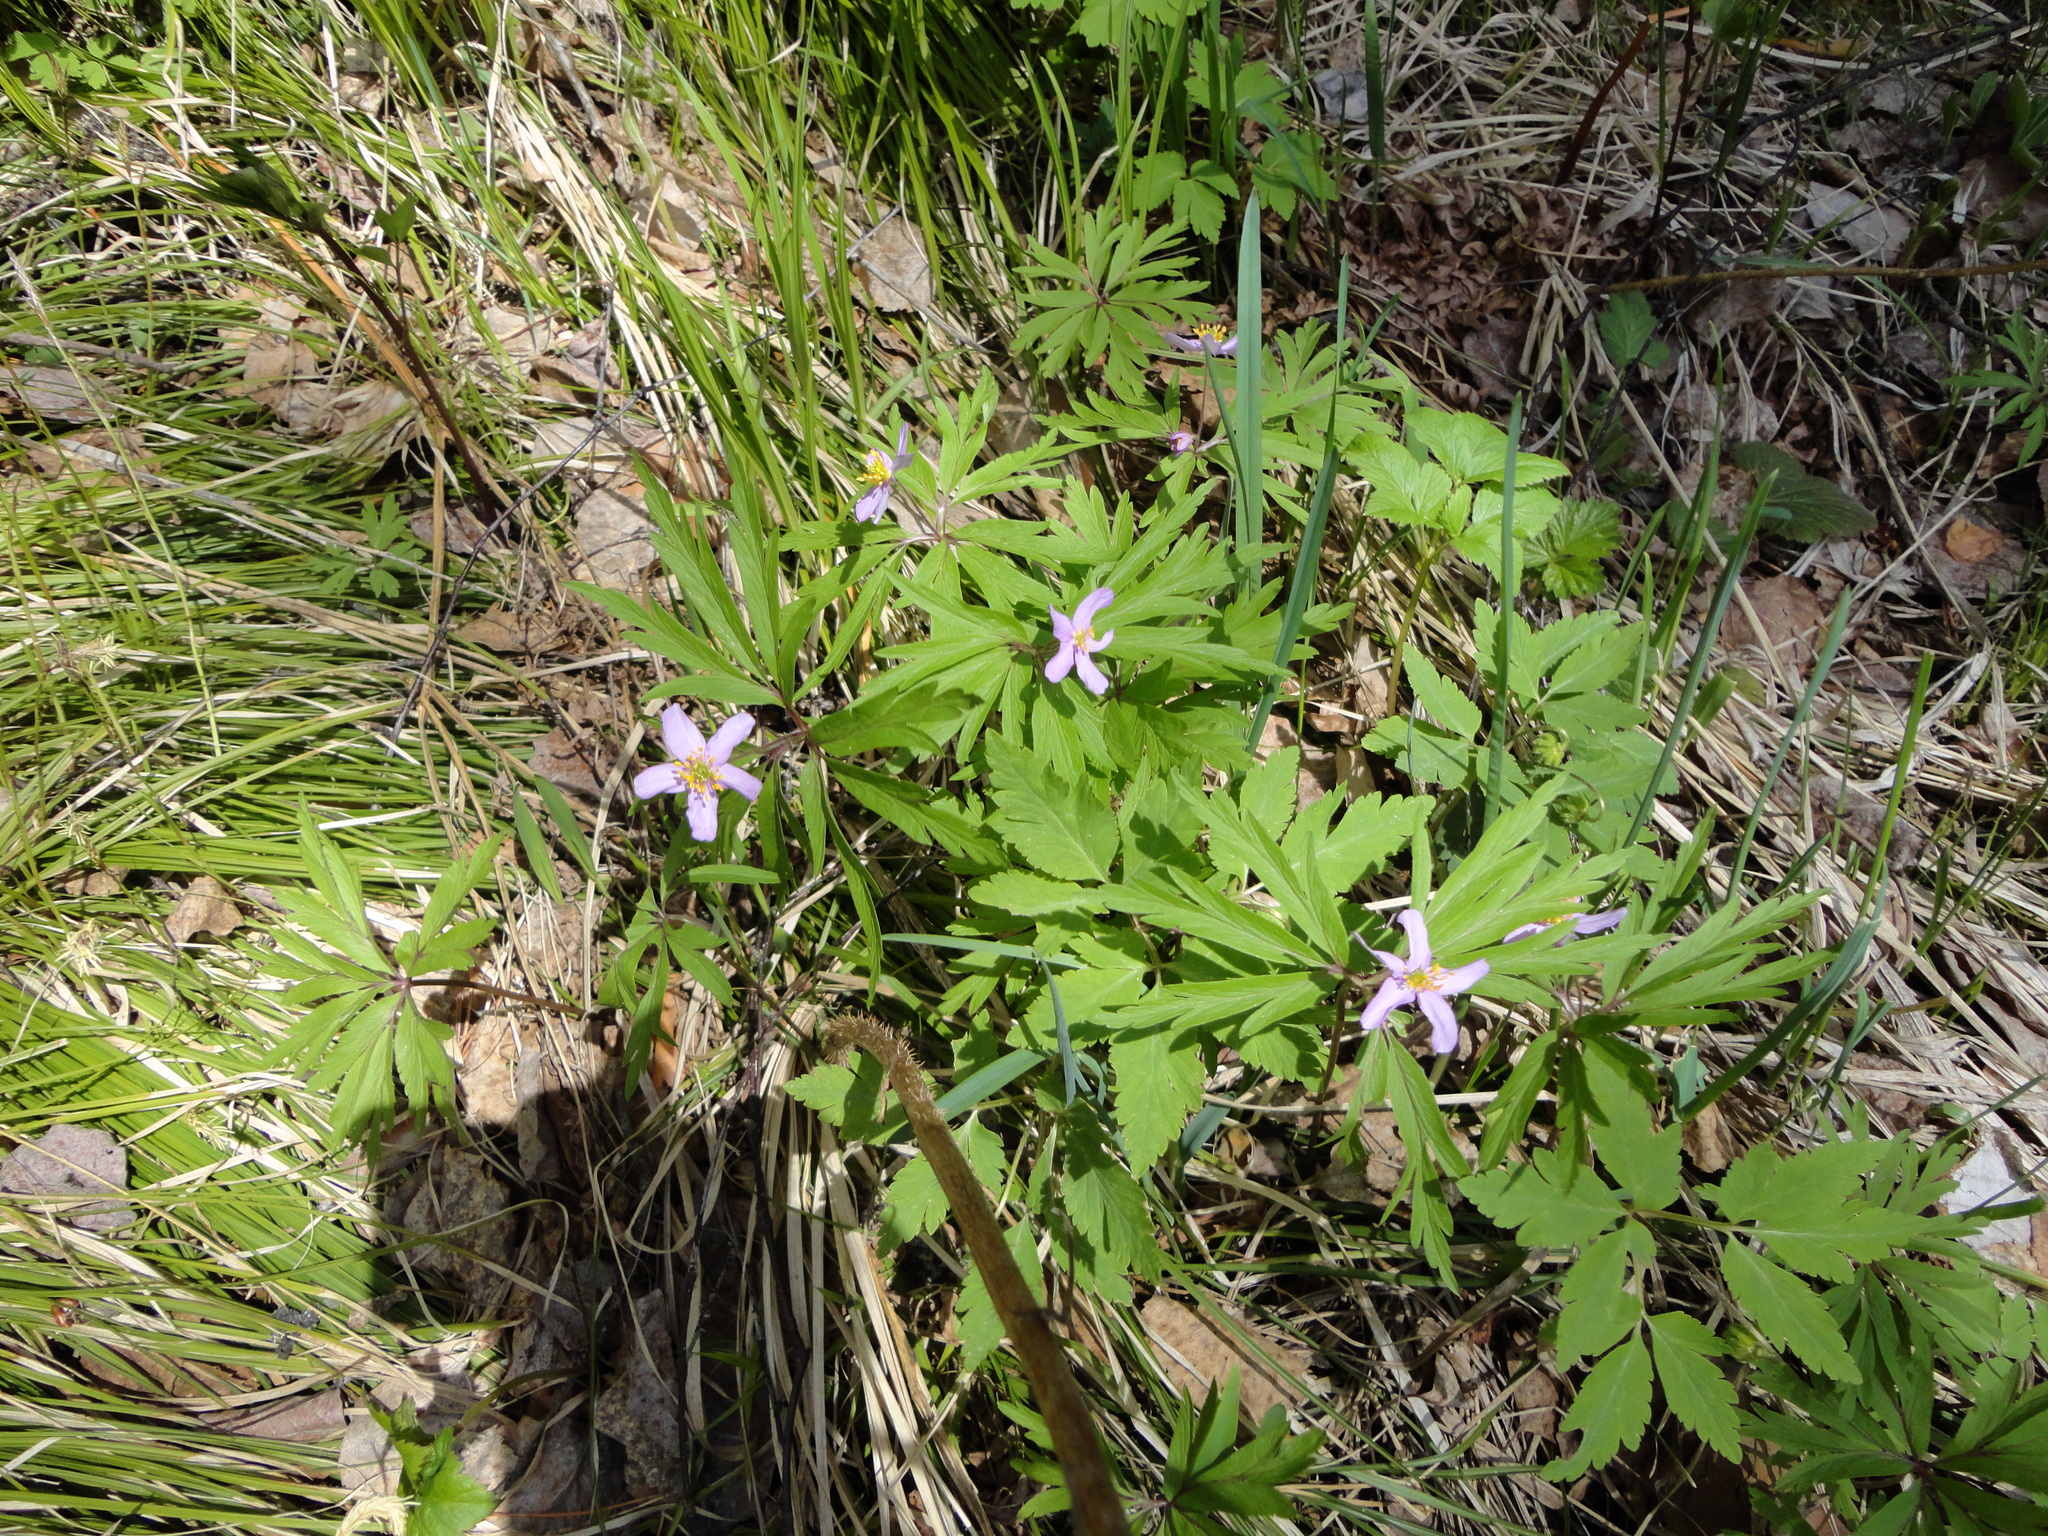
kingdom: Plantae
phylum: Tracheophyta
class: Magnoliopsida
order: Ranunculales
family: Ranunculaceae
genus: Anemone
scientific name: Anemone caerulea
